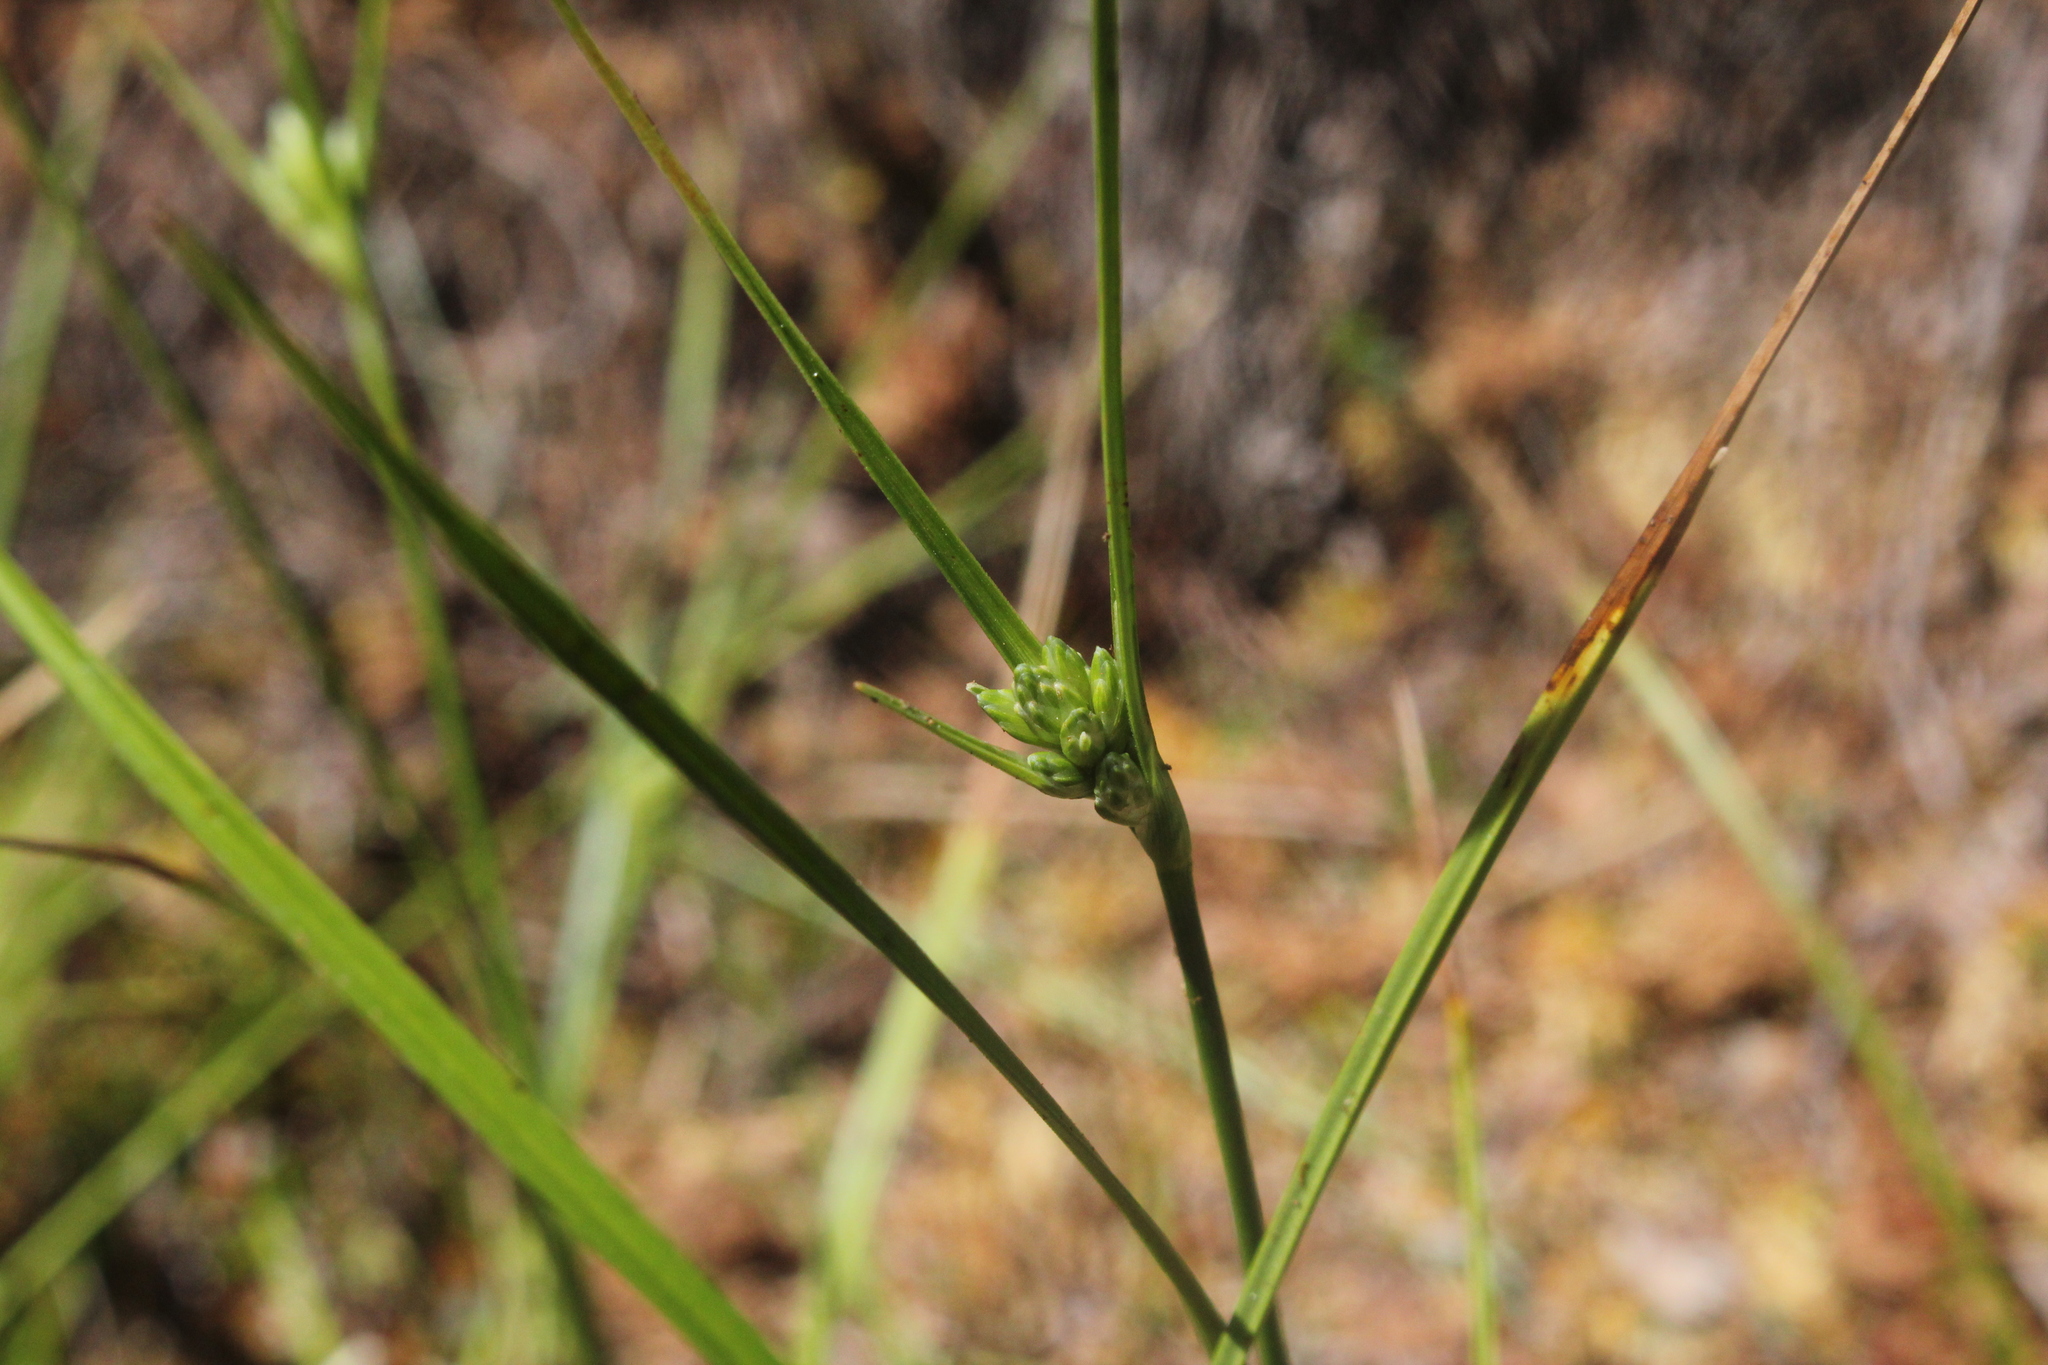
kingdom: Plantae
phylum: Tracheophyta
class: Liliopsida
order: Poales
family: Cyperaceae
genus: Eriophorum
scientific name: Eriophorum virginicum
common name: Tawny cottongrass
